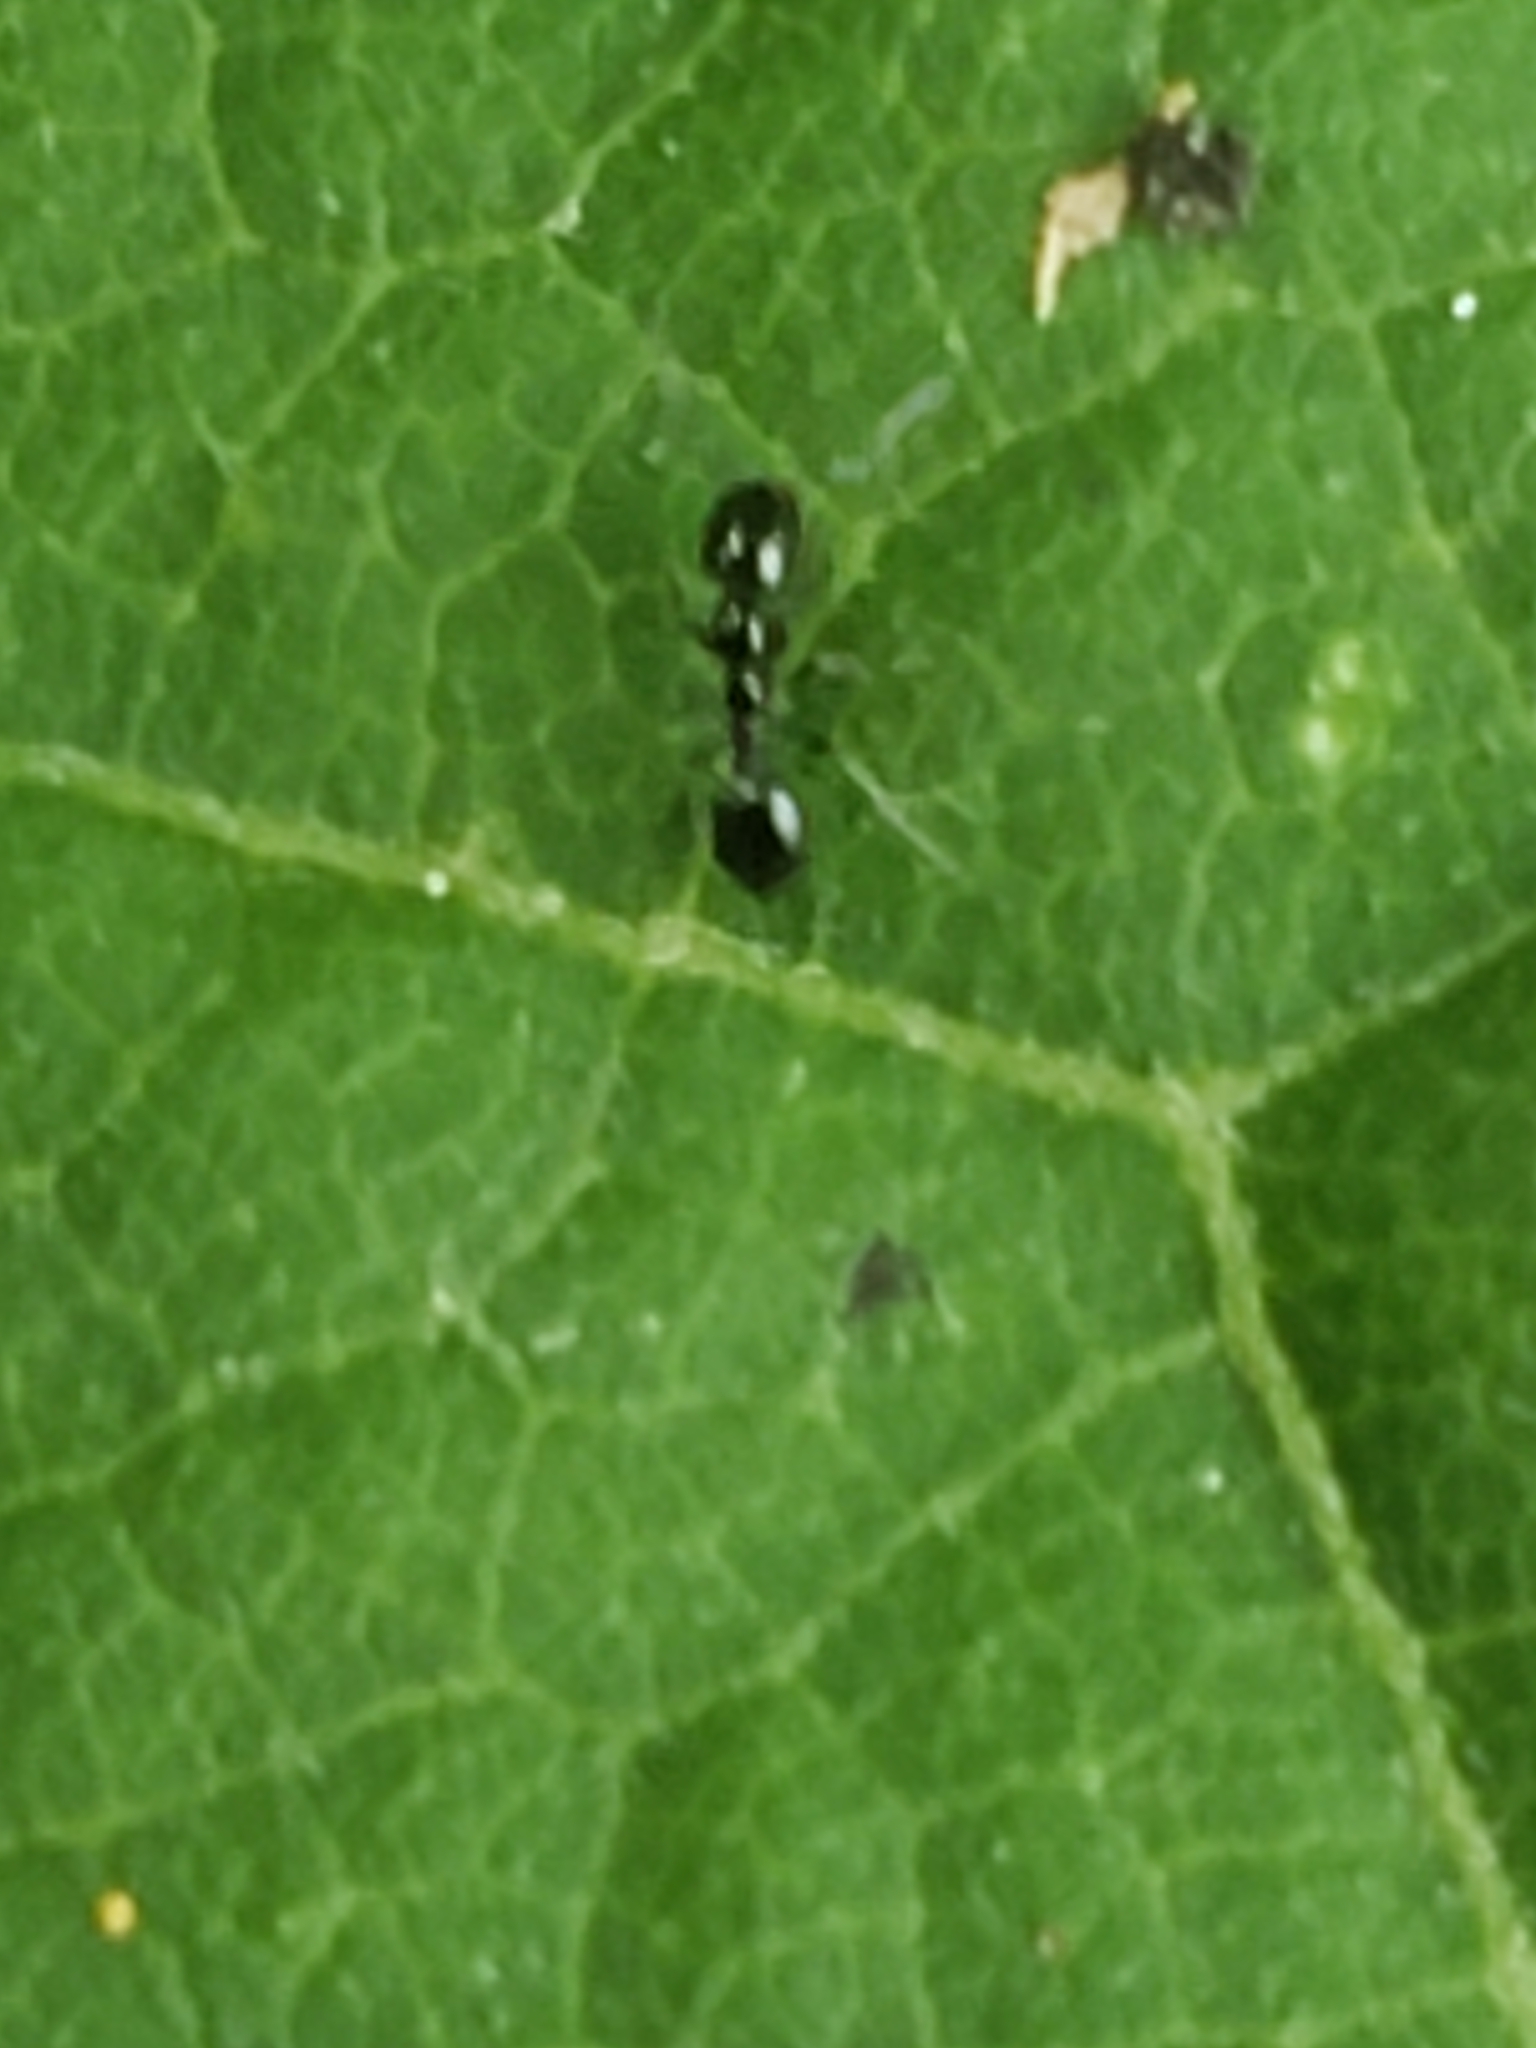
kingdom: Animalia
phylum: Arthropoda
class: Insecta
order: Hymenoptera
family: Formicidae
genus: Monomorium
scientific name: Monomorium minimum
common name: Little black ant
